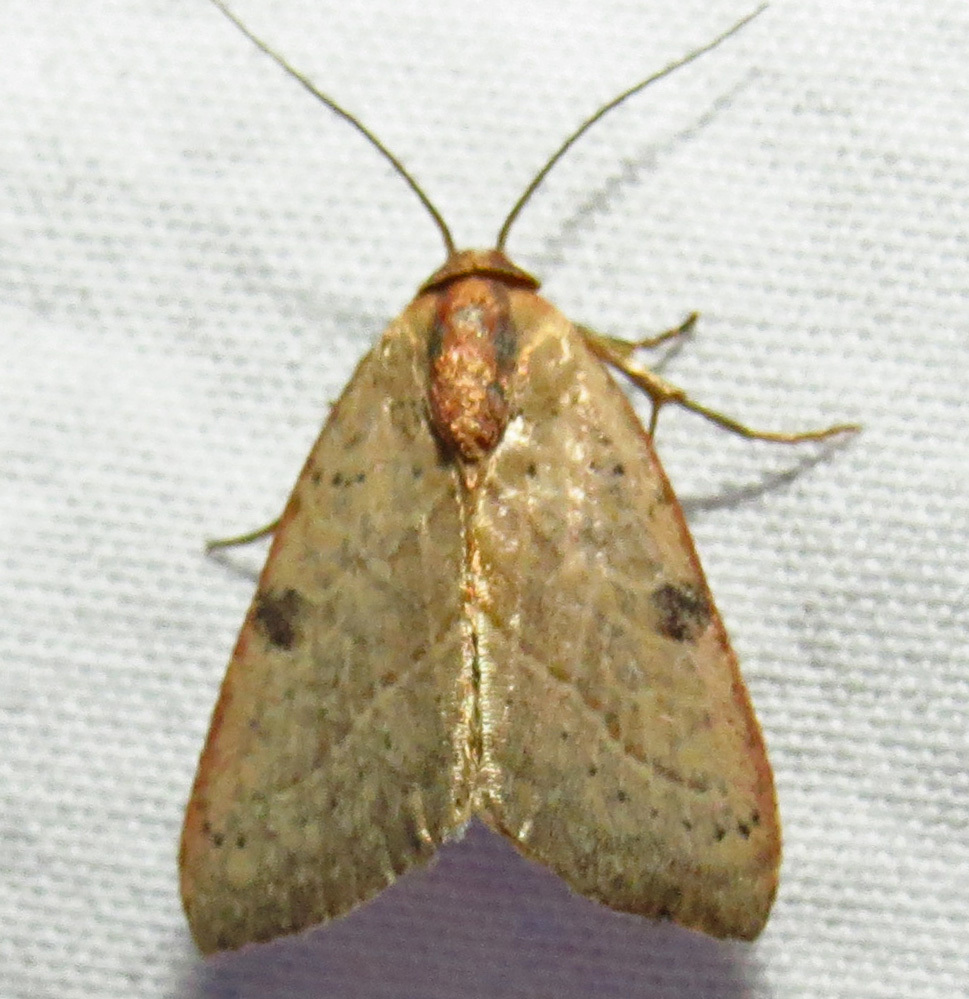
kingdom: Animalia
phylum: Arthropoda
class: Insecta
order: Lepidoptera
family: Noctuidae
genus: Galgula
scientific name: Galgula partita
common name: Wedgeling
